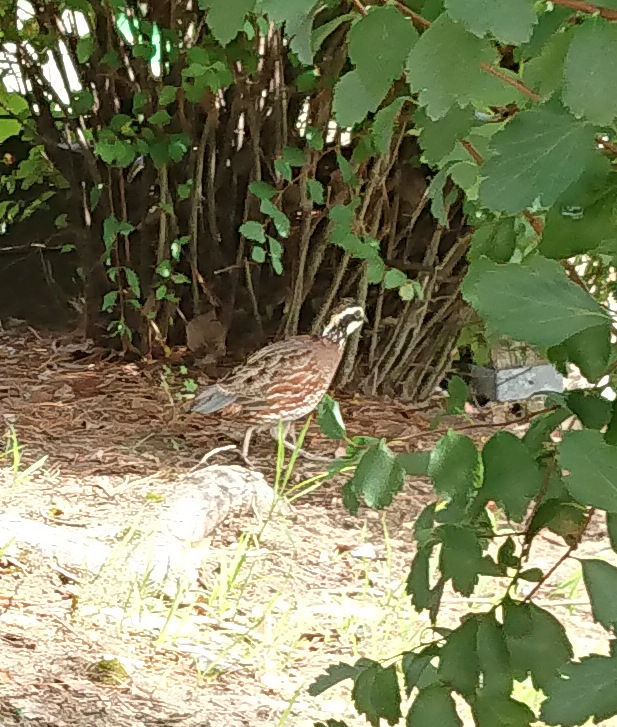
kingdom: Animalia
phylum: Chordata
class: Aves
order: Galliformes
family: Odontophoridae
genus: Colinus
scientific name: Colinus virginianus
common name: Northern bobwhite
